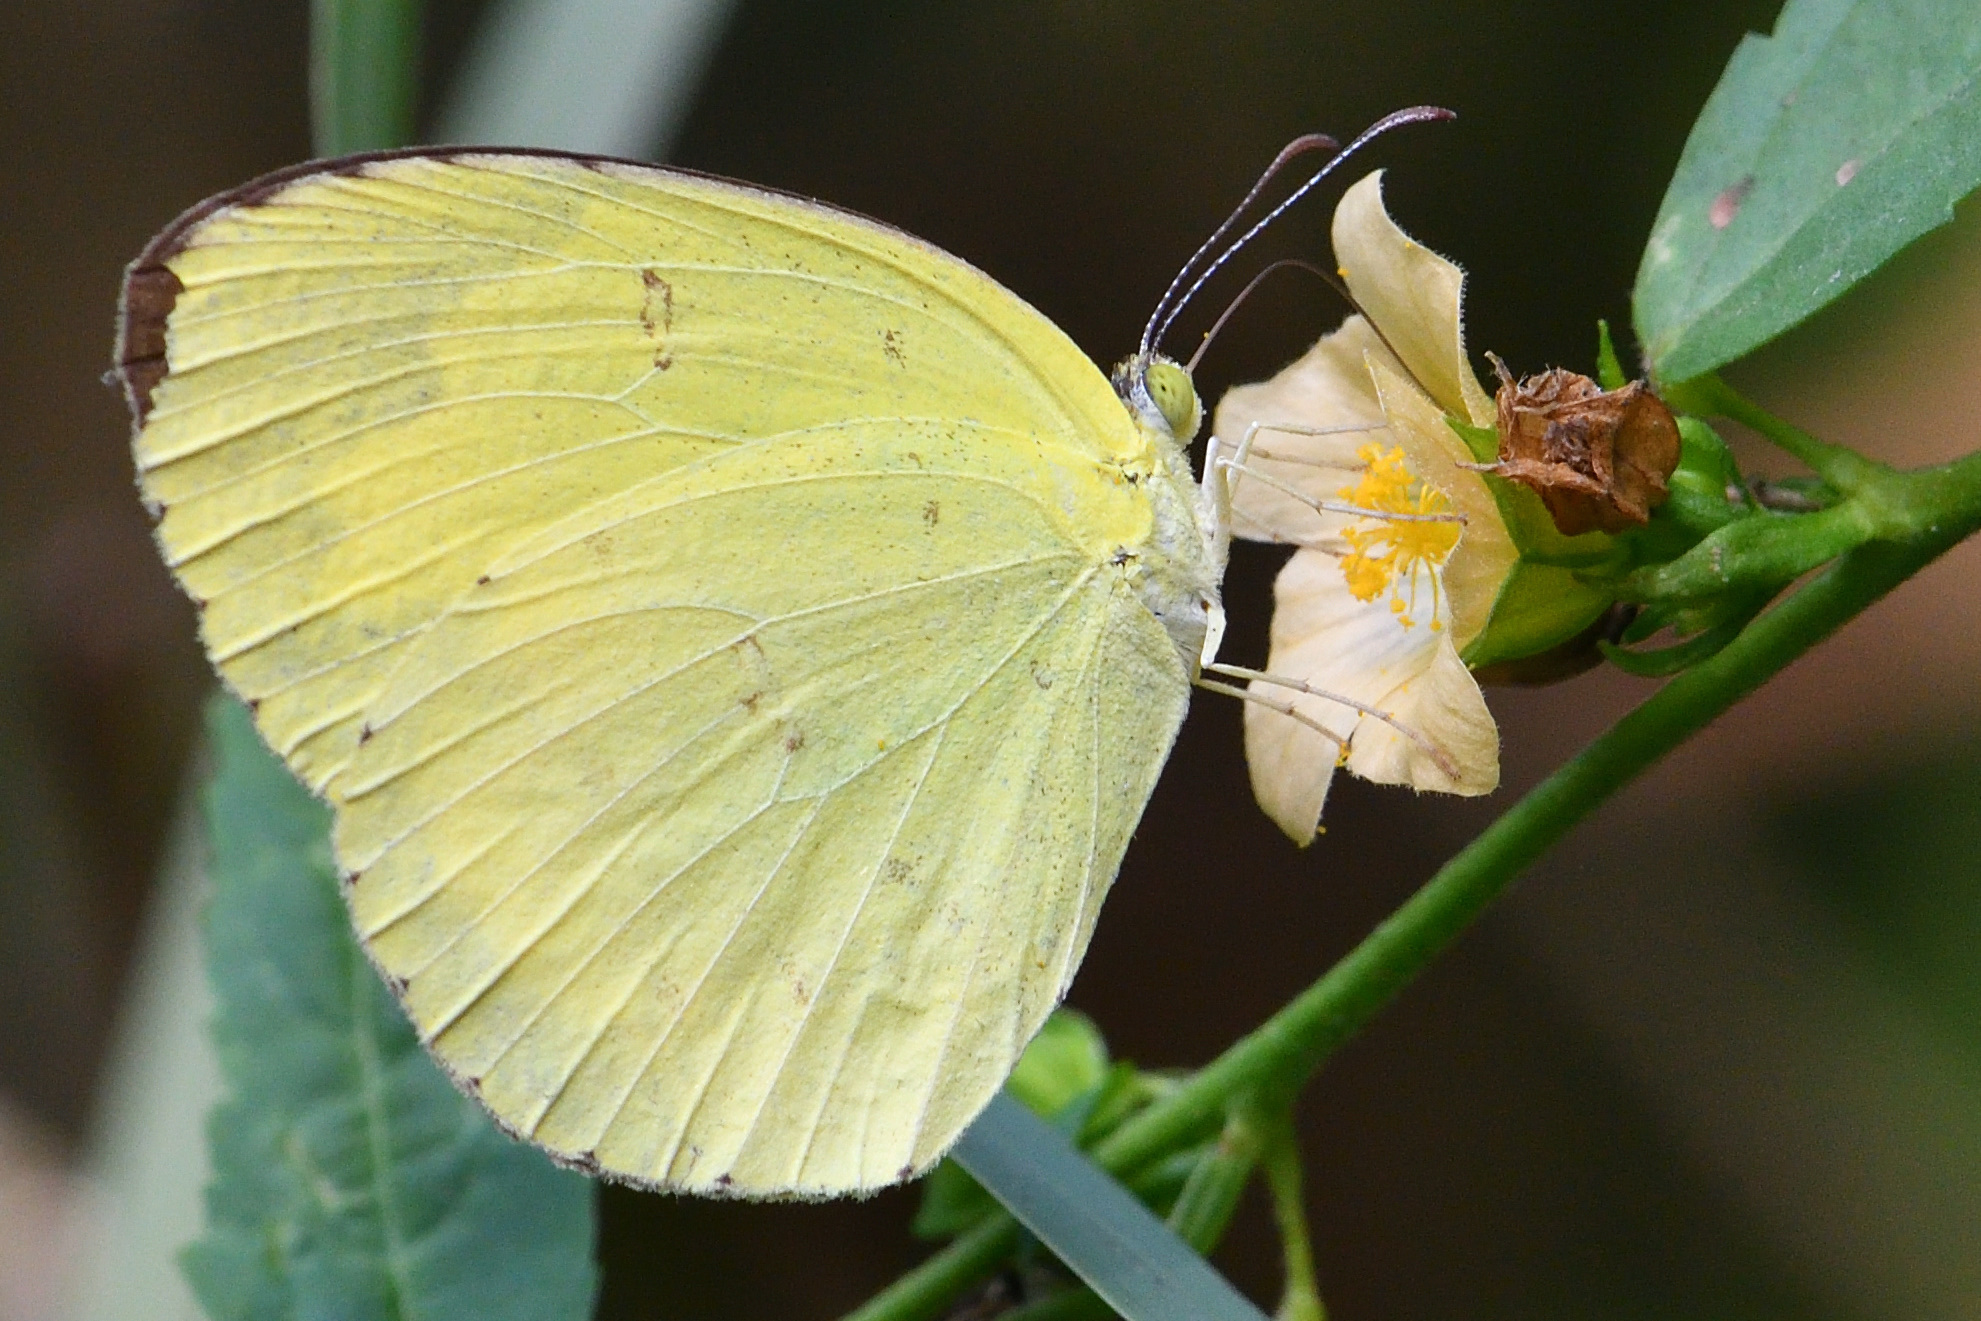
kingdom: Animalia
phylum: Arthropoda
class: Insecta
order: Lepidoptera
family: Pieridae
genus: Eurema
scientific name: Eurema hecabe
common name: Pale grass yellow
